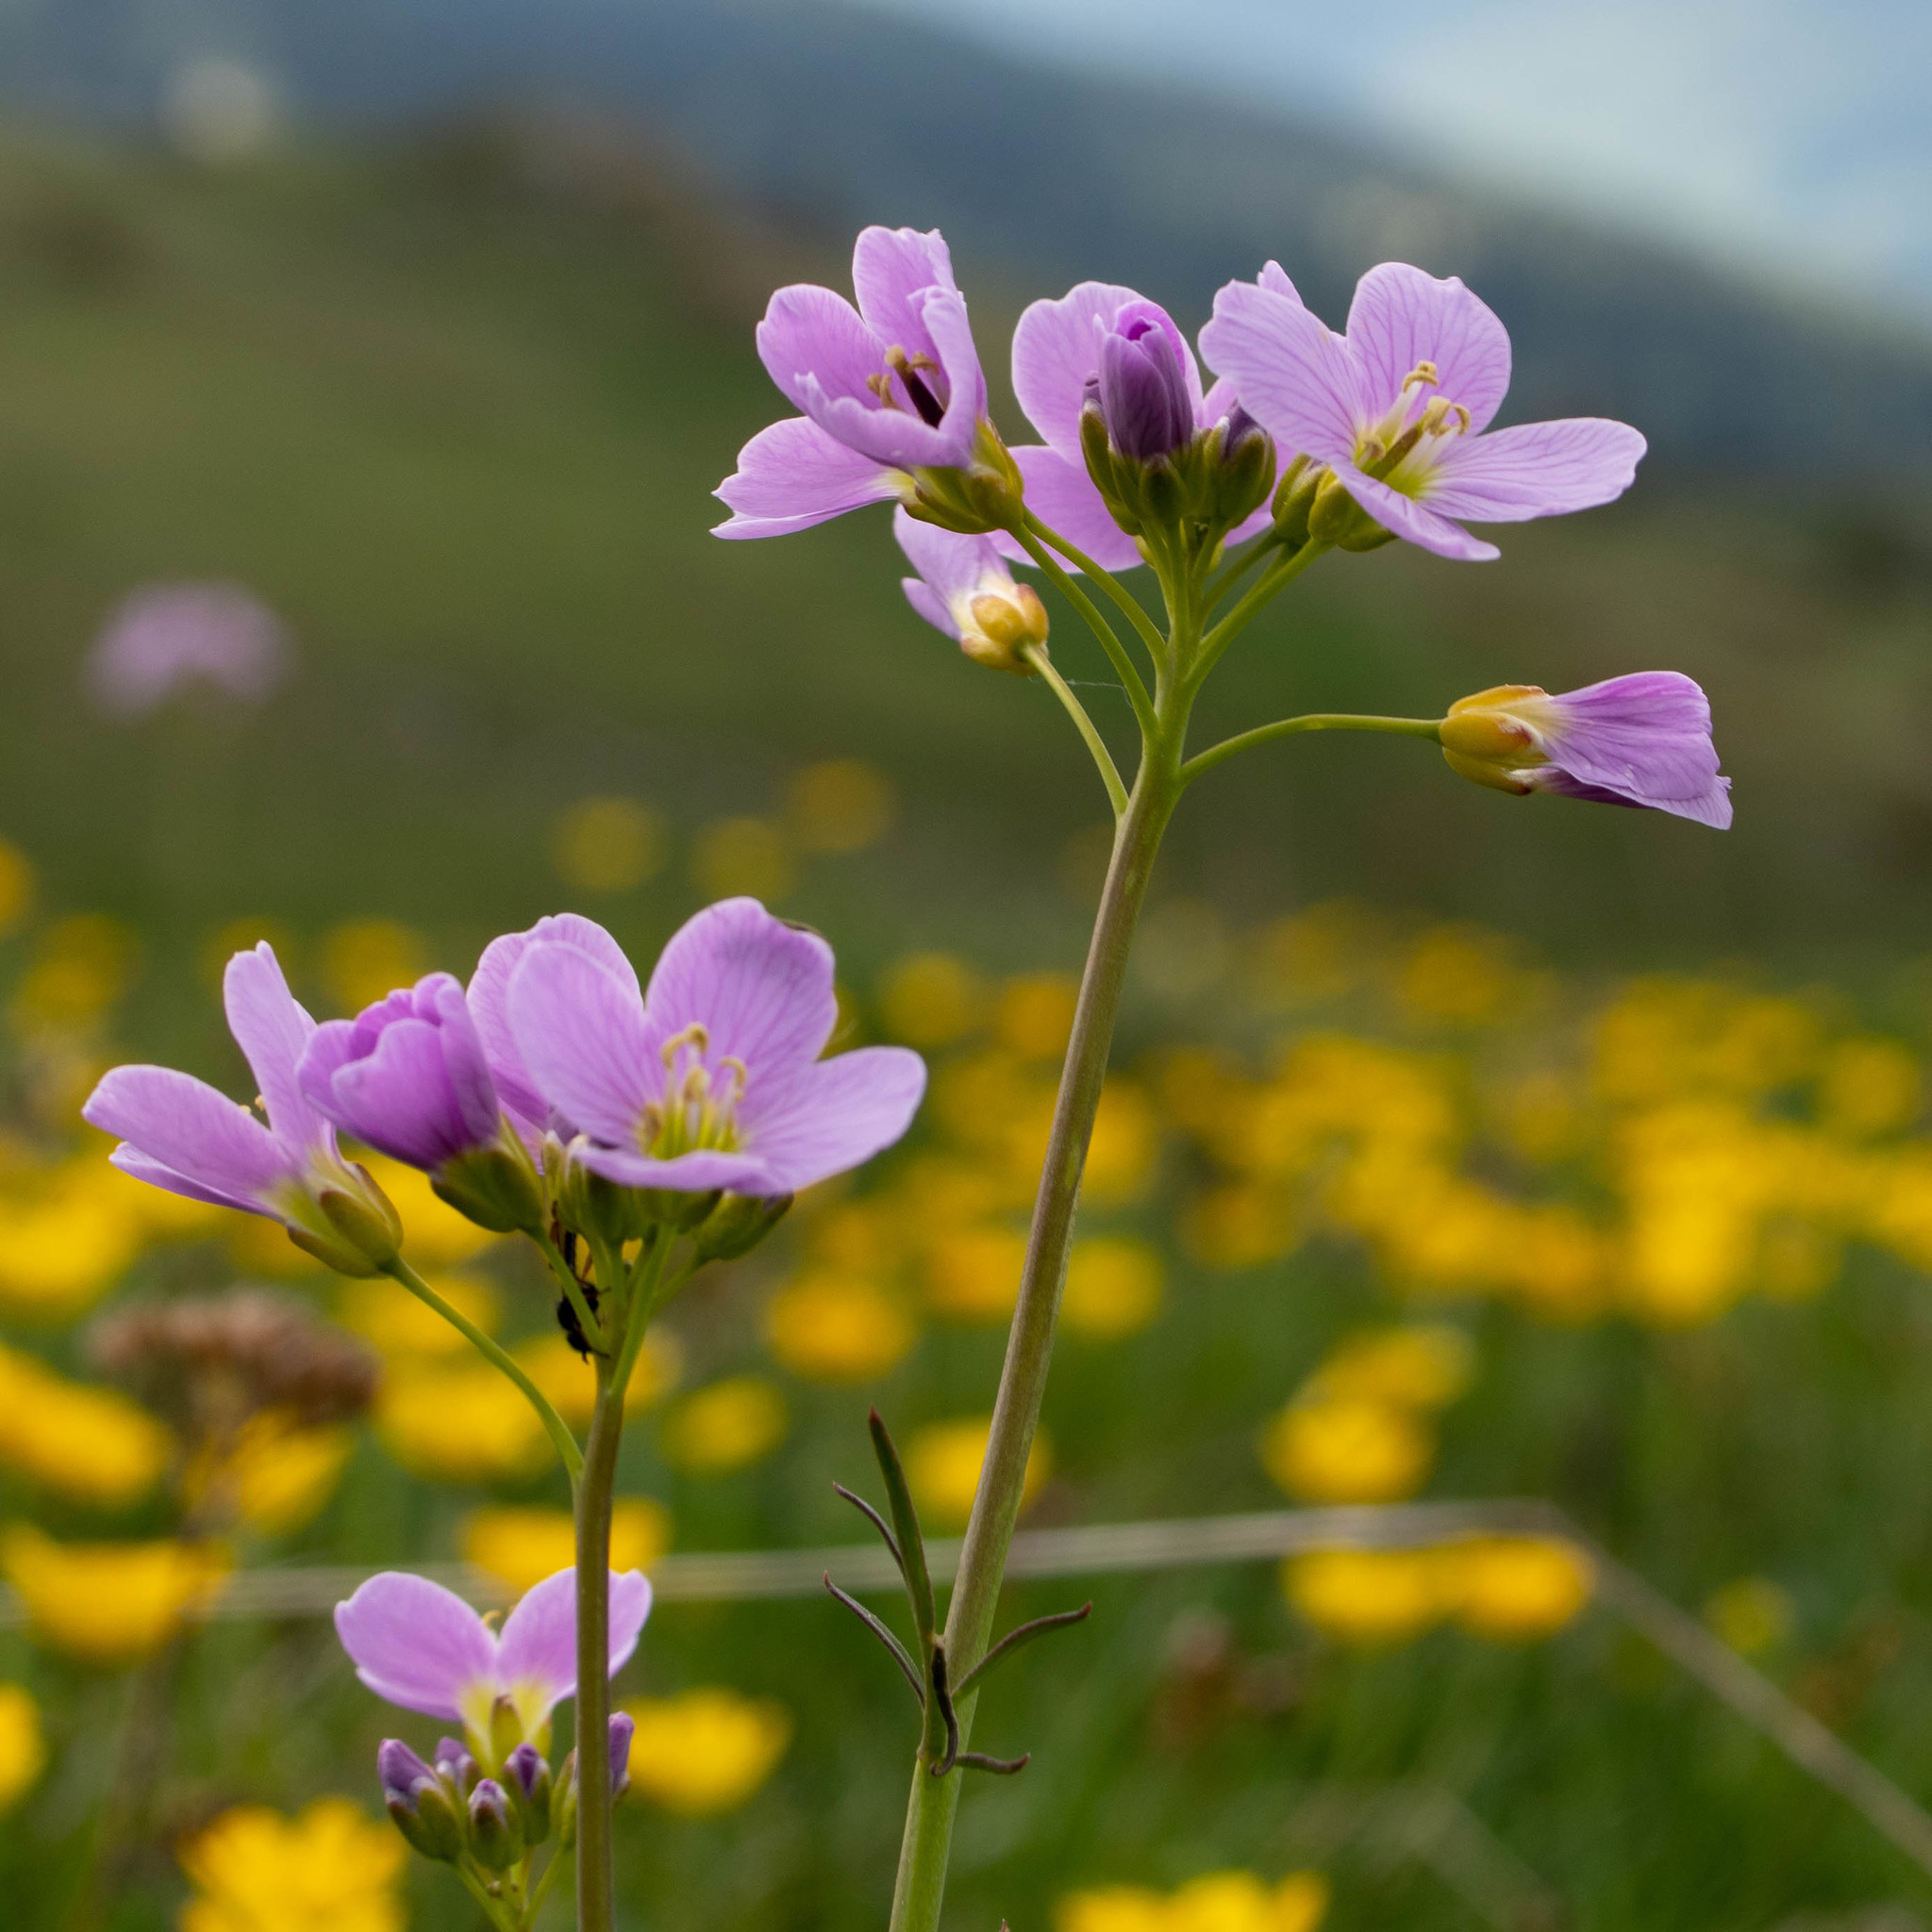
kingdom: Plantae
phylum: Tracheophyta
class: Magnoliopsida
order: Brassicales
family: Brassicaceae
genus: Cardamine
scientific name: Cardamine pratensis
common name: Cuckoo flower
